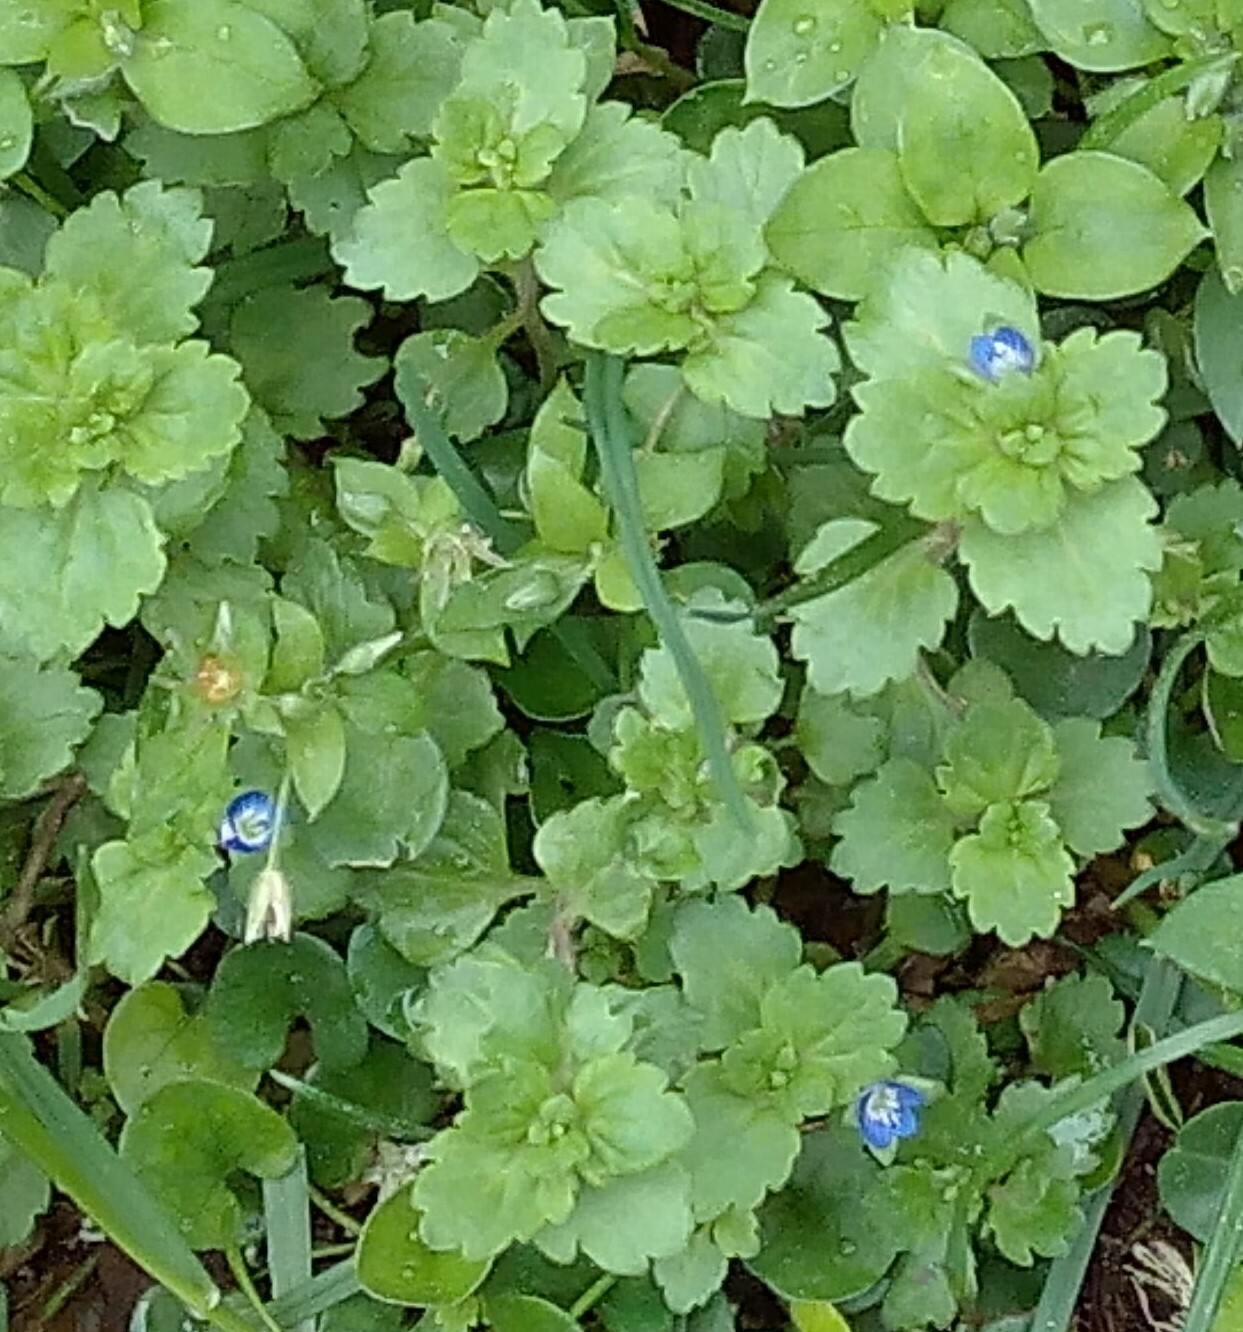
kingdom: Plantae
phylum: Tracheophyta
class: Magnoliopsida
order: Lamiales
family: Plantaginaceae
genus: Veronica
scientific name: Veronica polita
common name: Grey field-speedwell
